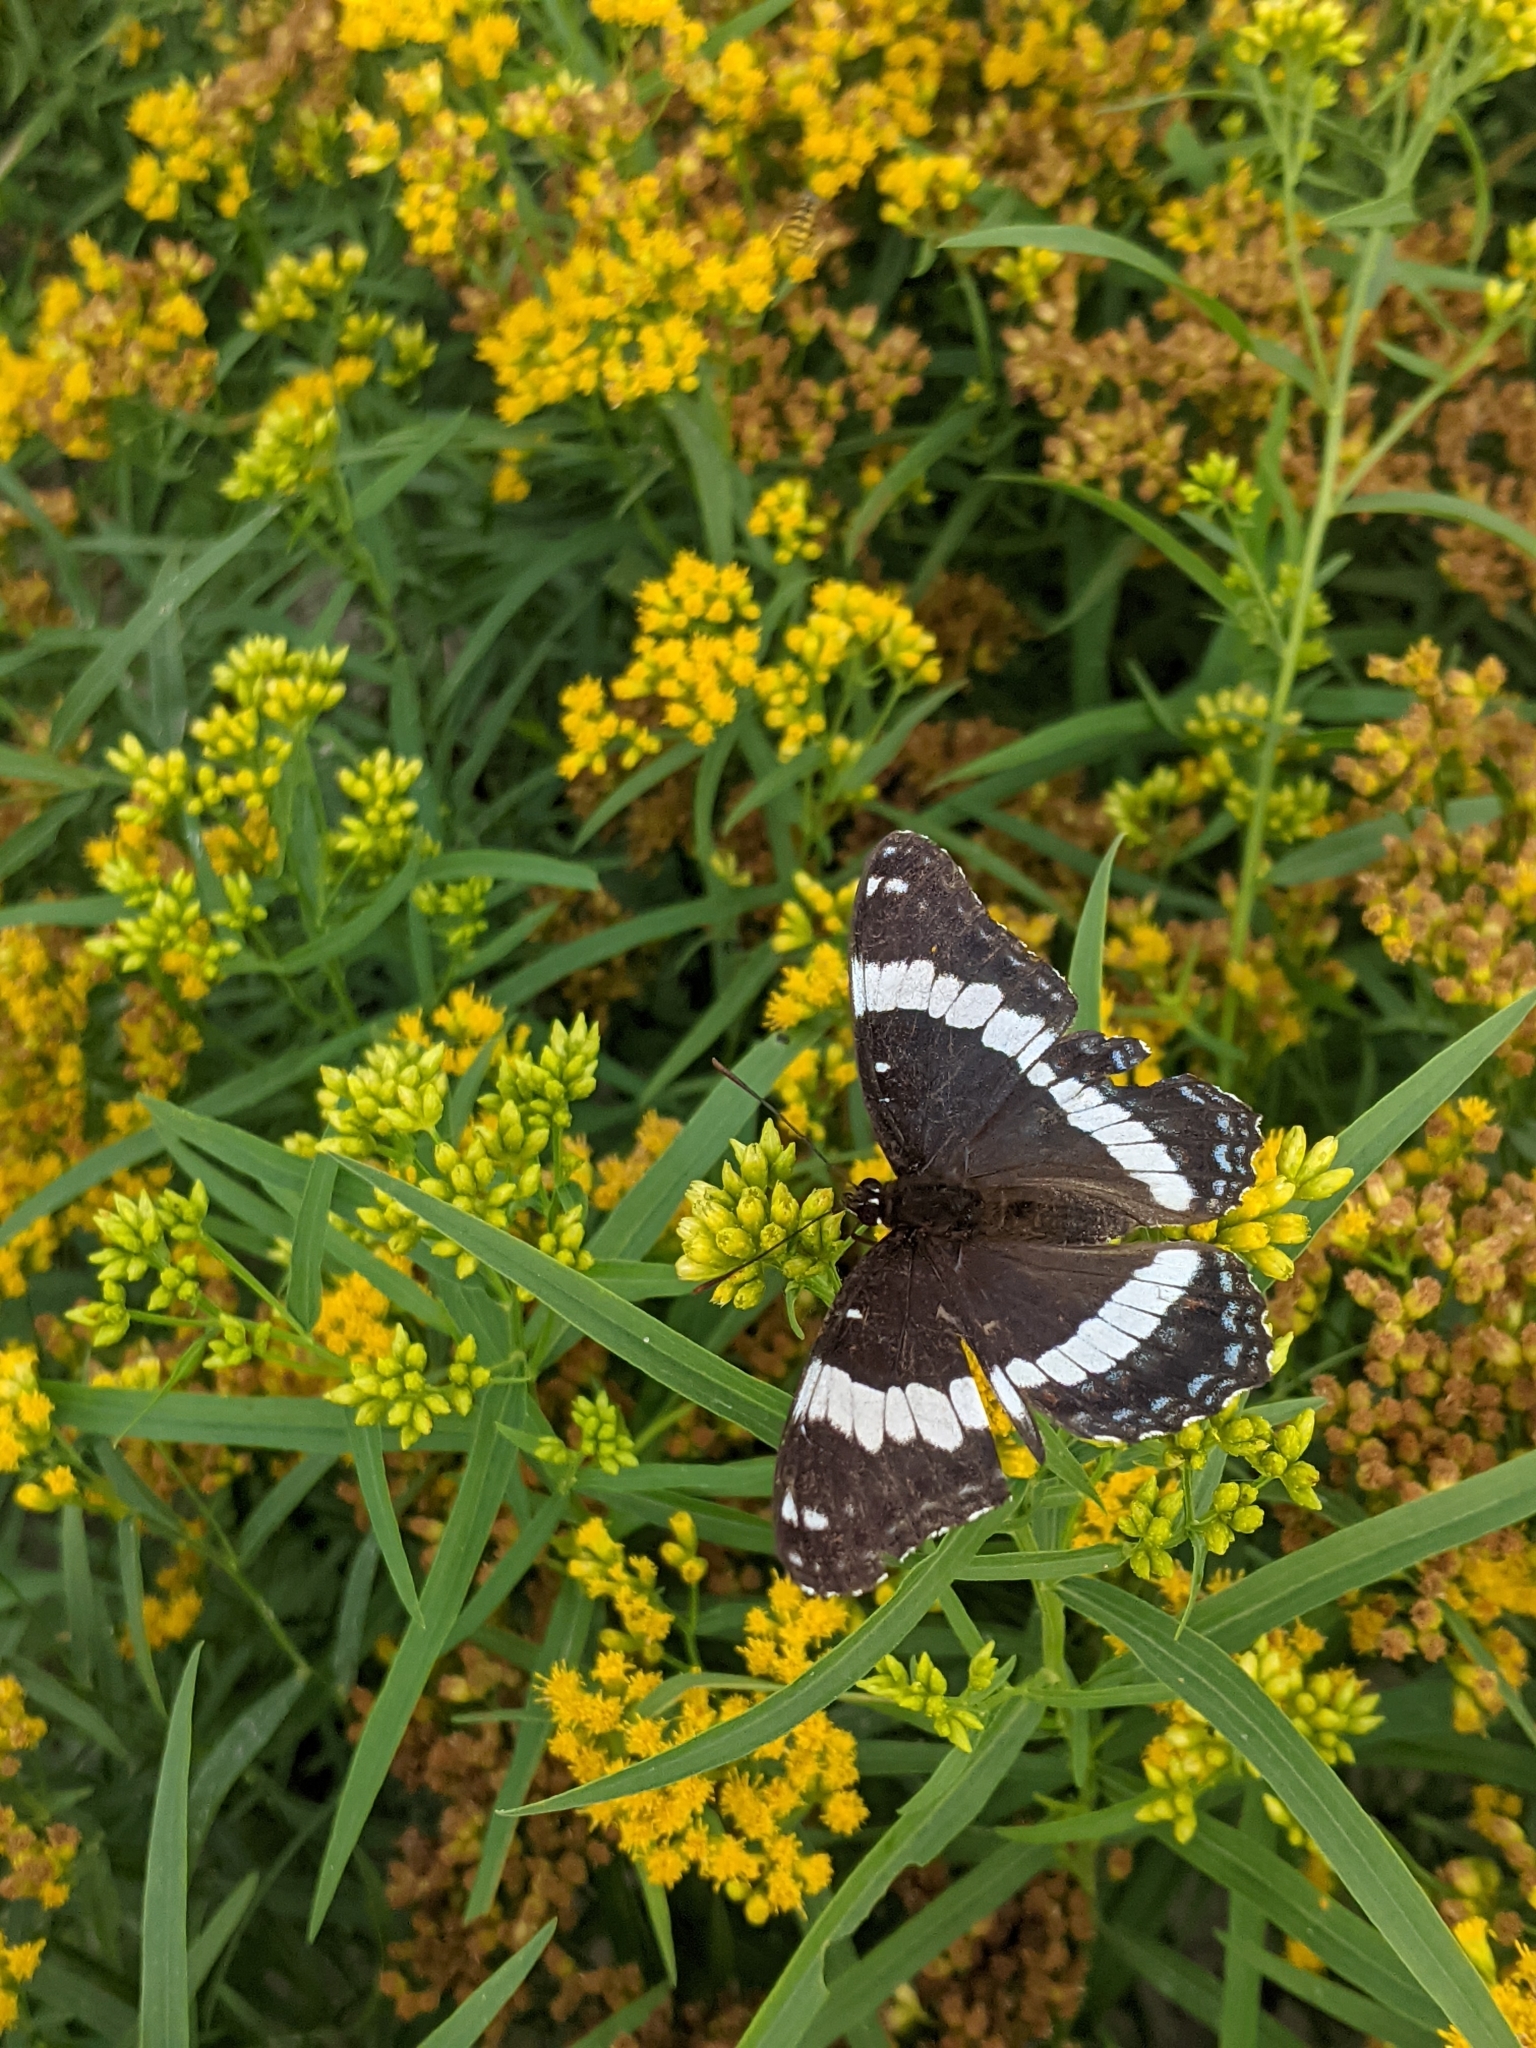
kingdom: Animalia
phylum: Arthropoda
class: Insecta
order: Lepidoptera
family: Nymphalidae
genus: Limenitis
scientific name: Limenitis arthemis
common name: Red-spotted admiral
